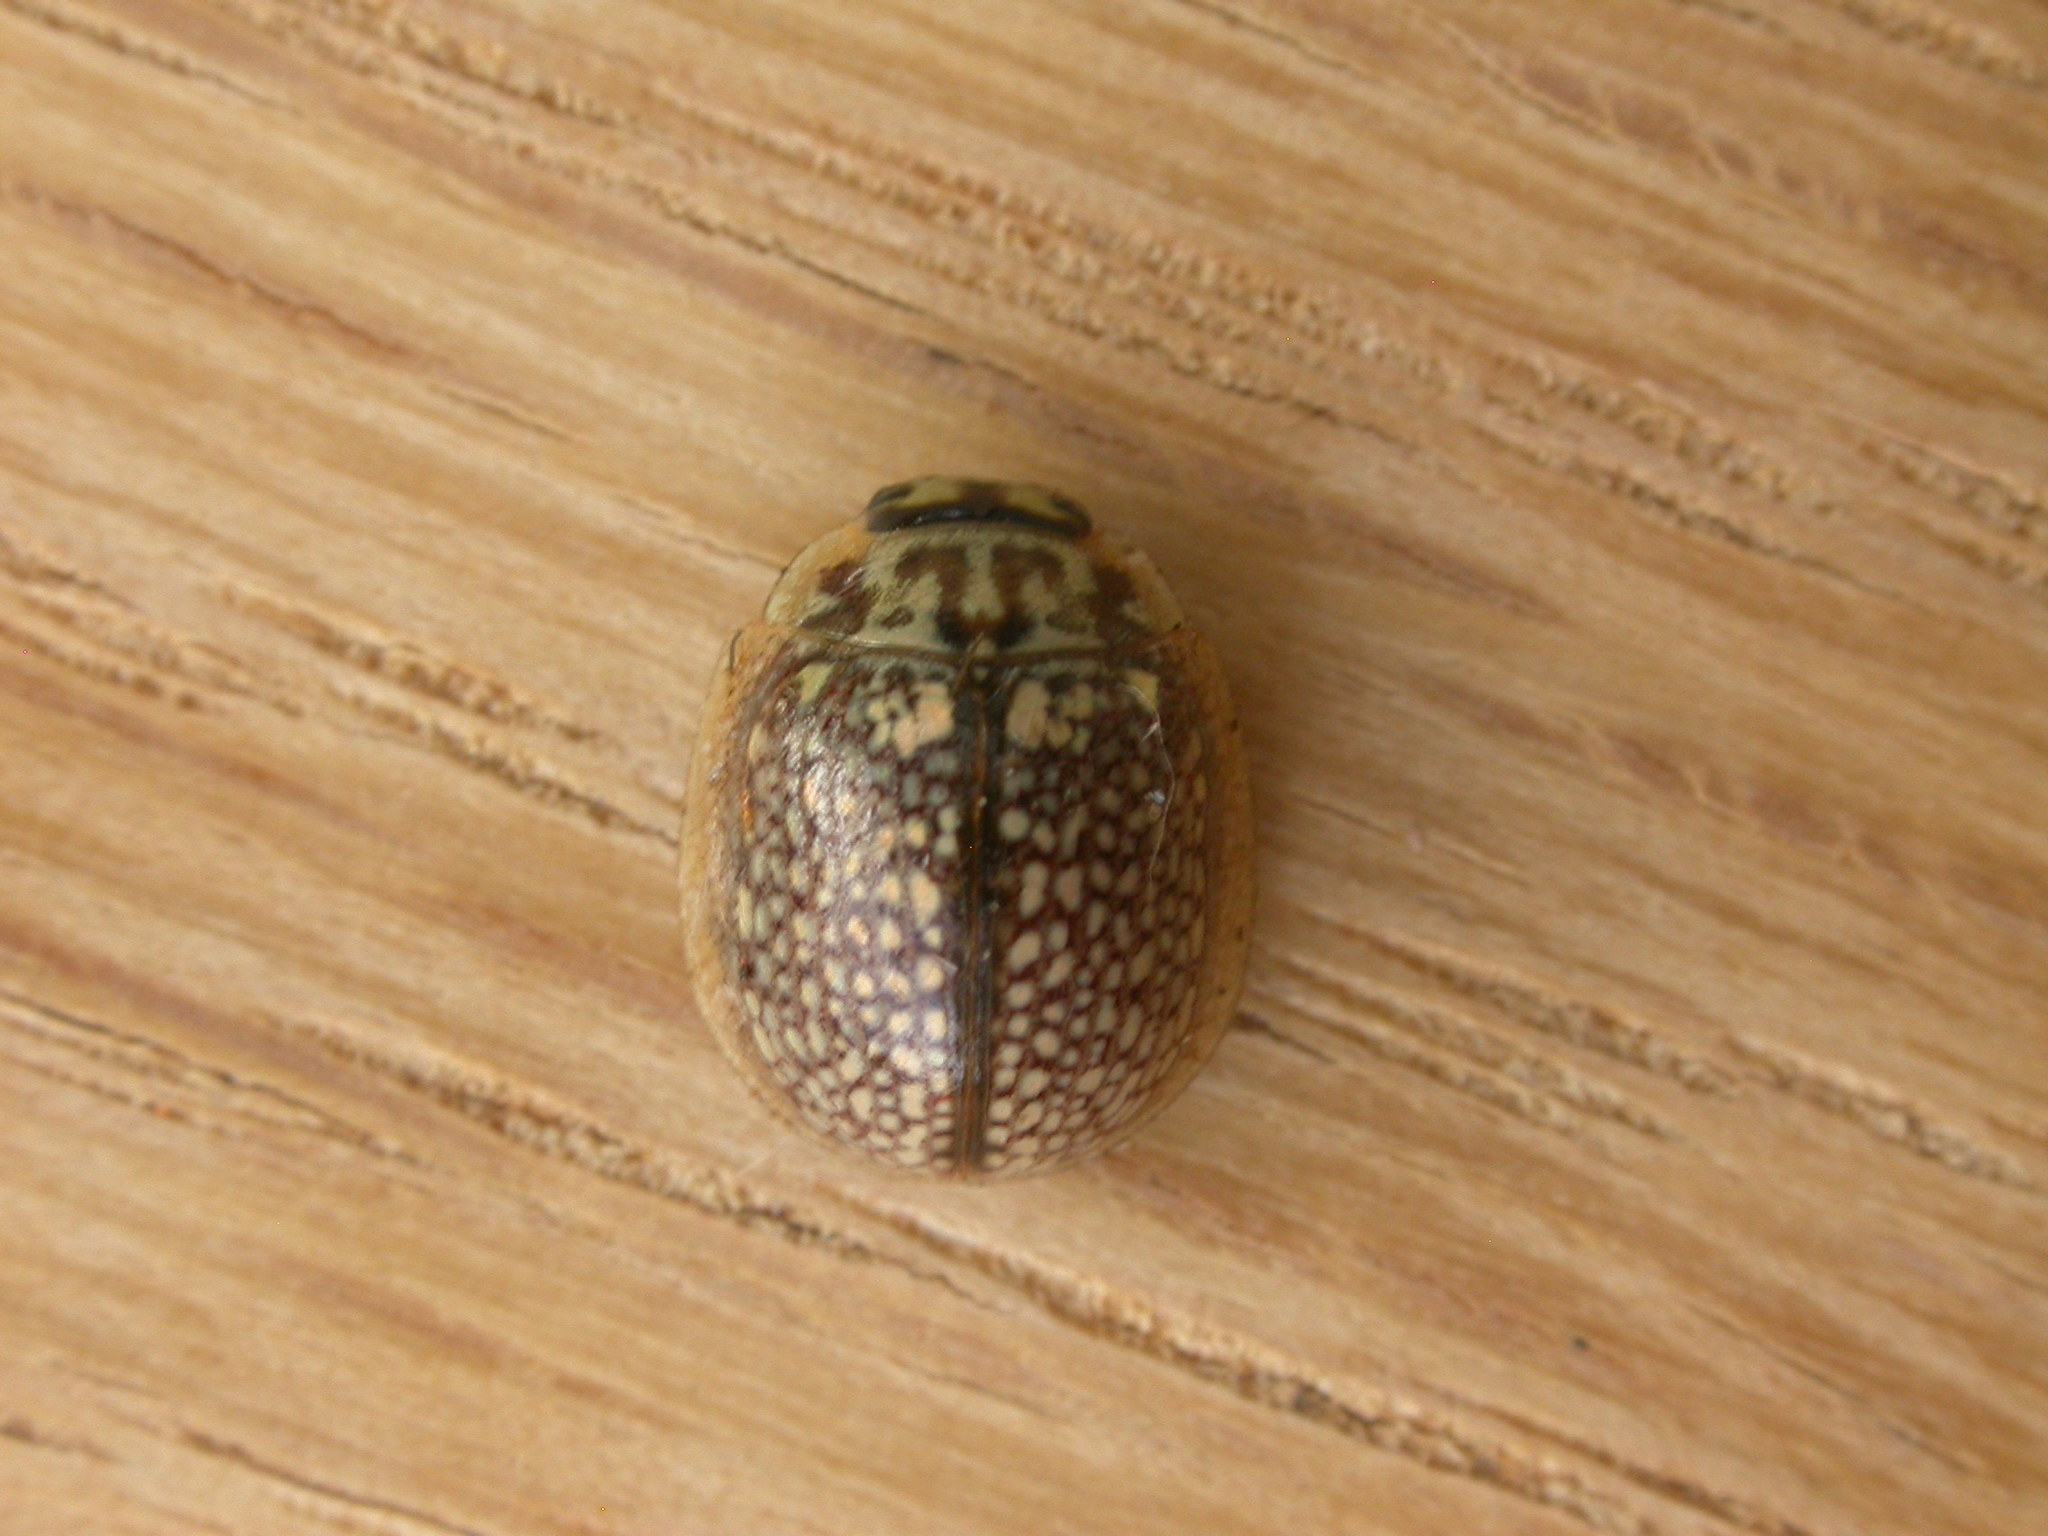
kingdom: Animalia
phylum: Arthropoda
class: Insecta
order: Coleoptera
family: Chrysomelidae
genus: Paropsisterna
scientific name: Paropsisterna decolorata
